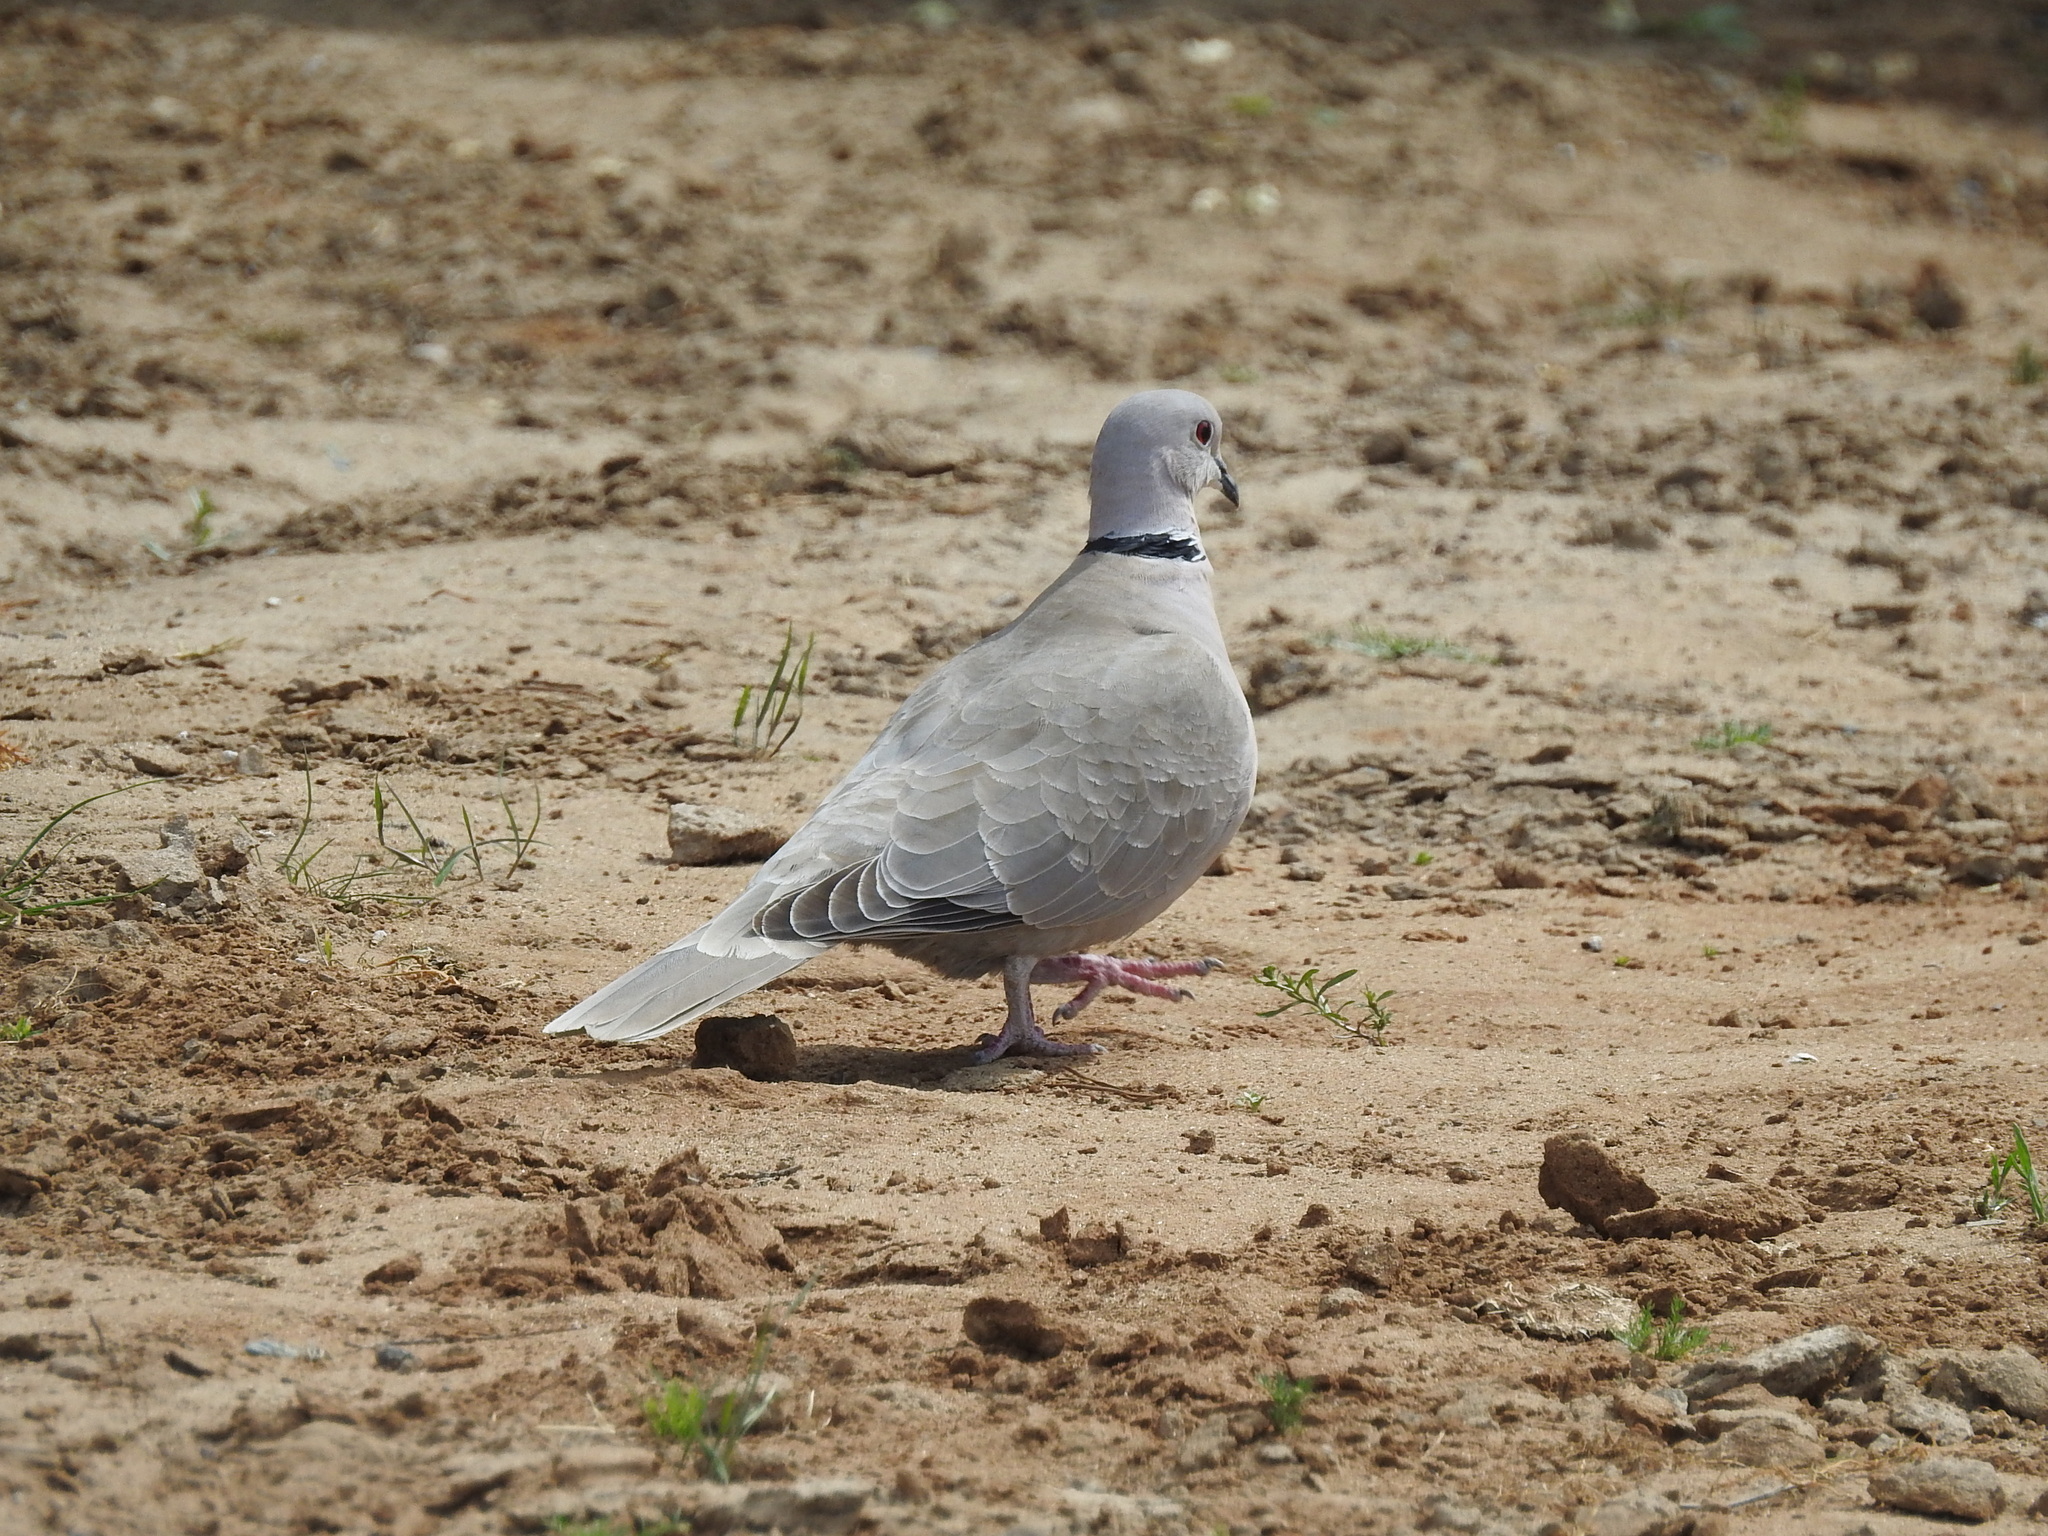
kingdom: Animalia
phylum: Chordata
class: Aves
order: Columbiformes
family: Columbidae
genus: Streptopelia
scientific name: Streptopelia decaocto
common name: Eurasian collared dove
